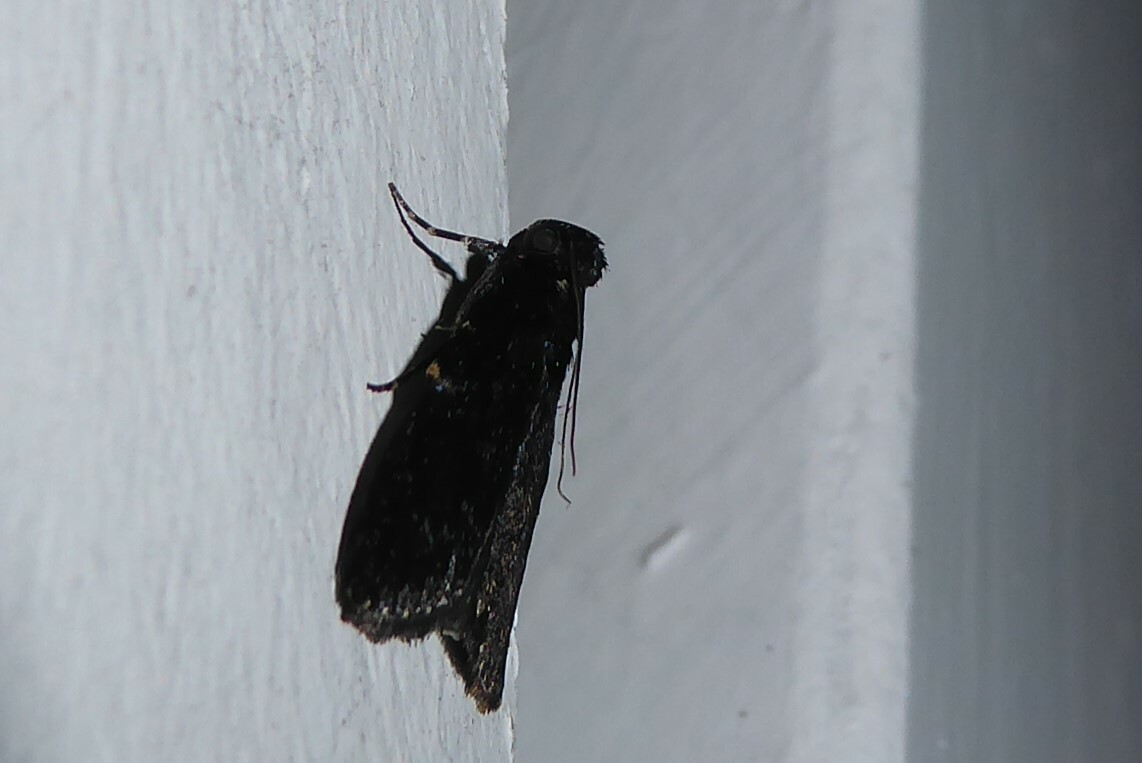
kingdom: Animalia
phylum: Arthropoda
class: Insecta
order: Lepidoptera
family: Pyralidae
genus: Stericta
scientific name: Stericta carbonalis
